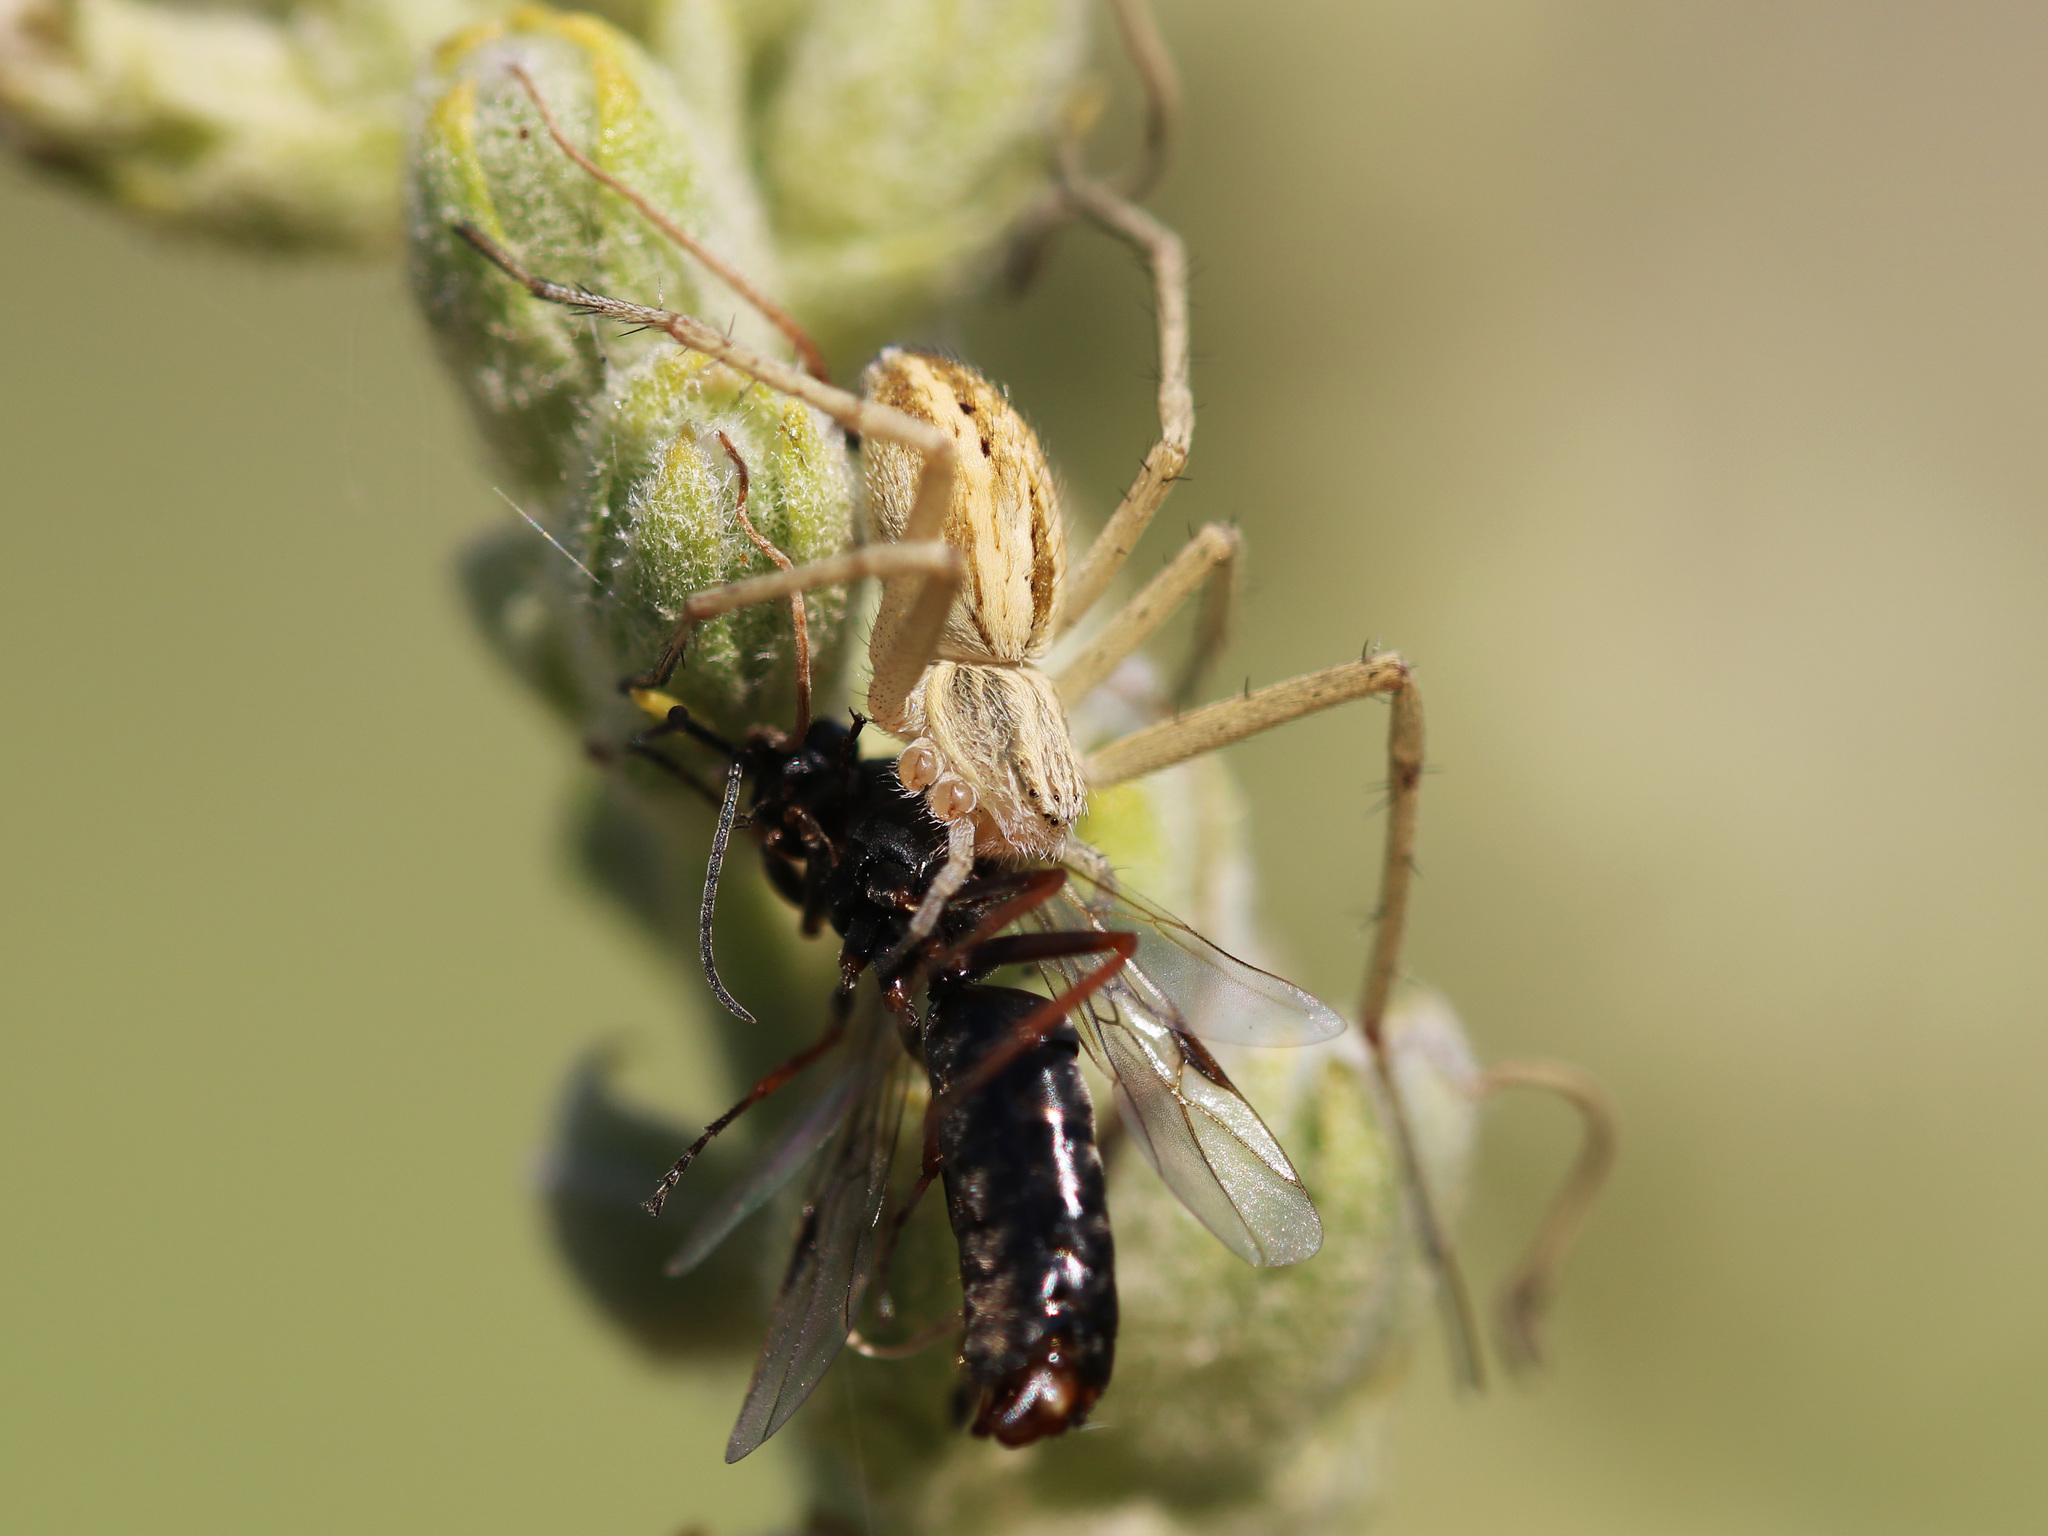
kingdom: Animalia
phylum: Arthropoda
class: Arachnida
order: Araneae
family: Philodromidae
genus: Thanatus
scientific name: Thanatus oblongiusculus
